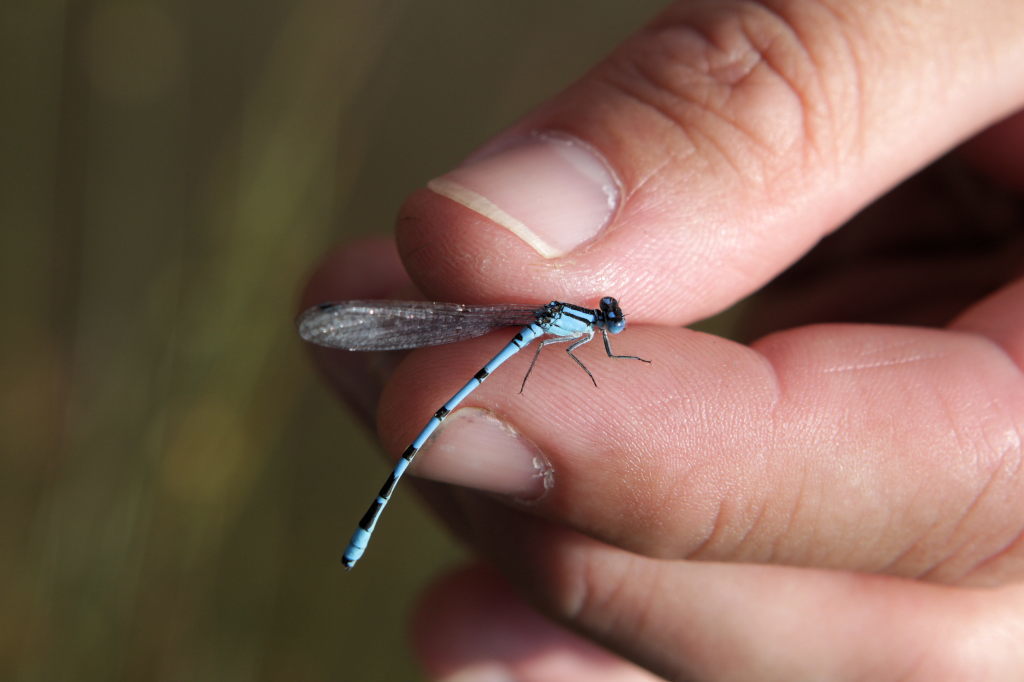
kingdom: Animalia
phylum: Arthropoda
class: Insecta
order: Odonata
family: Coenagrionidae
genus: Enallagma
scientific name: Enallagma cyathigerum
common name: Common blue damselfly
